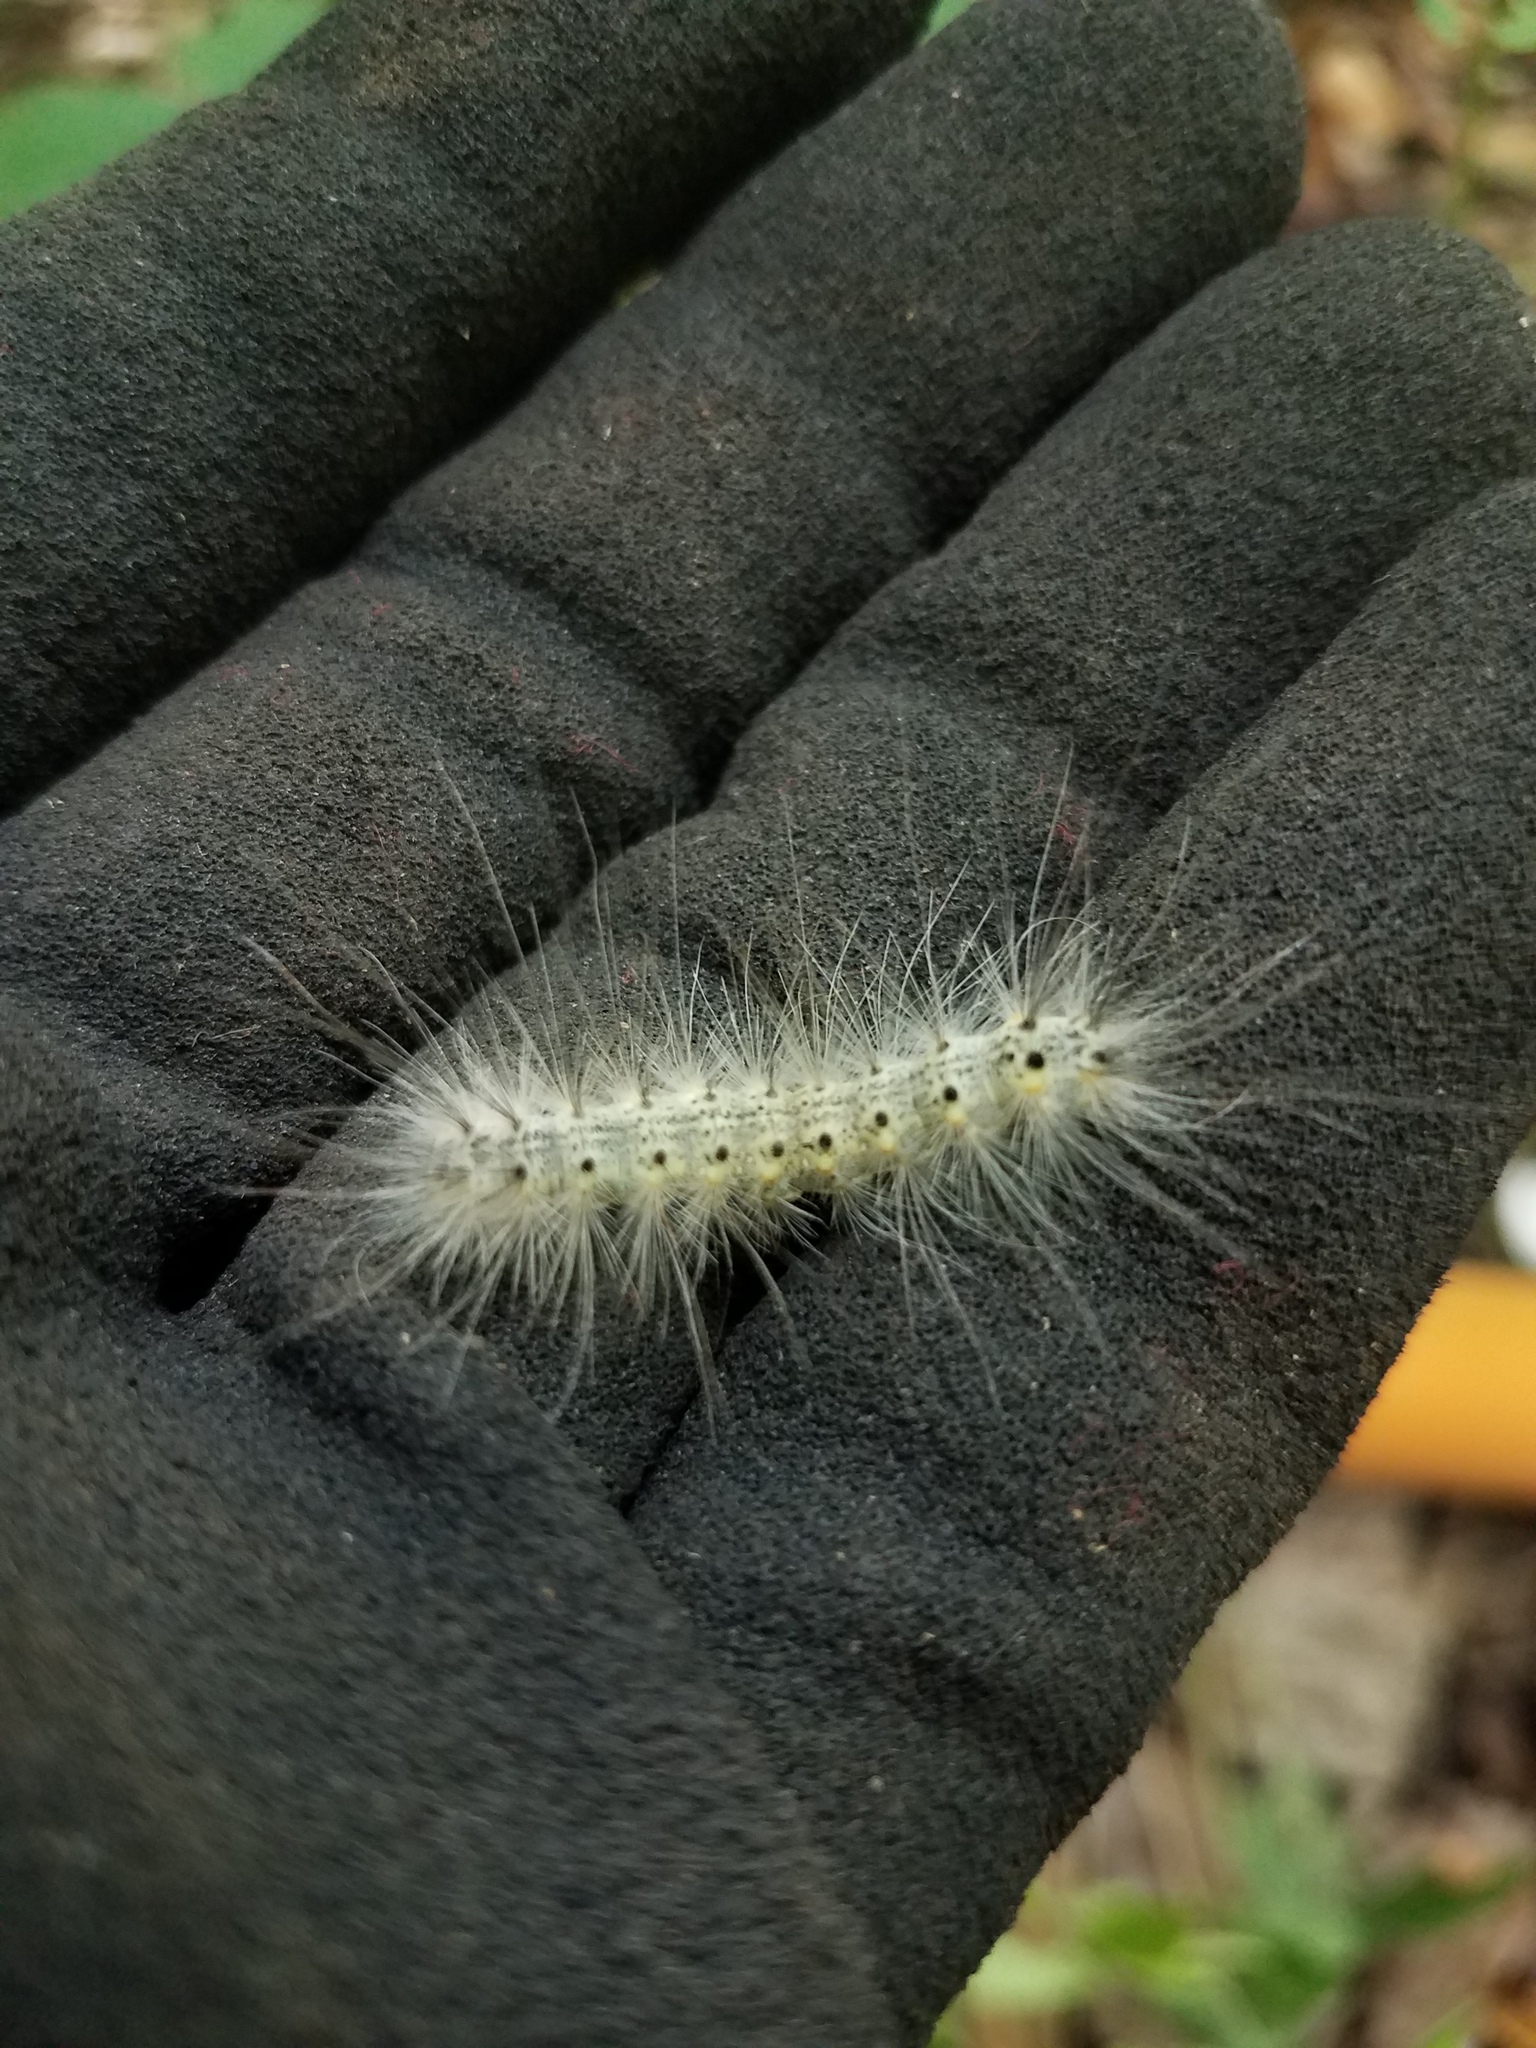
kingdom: Animalia
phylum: Arthropoda
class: Insecta
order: Lepidoptera
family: Erebidae
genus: Hyphantria
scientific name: Hyphantria cunea
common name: American white moth
